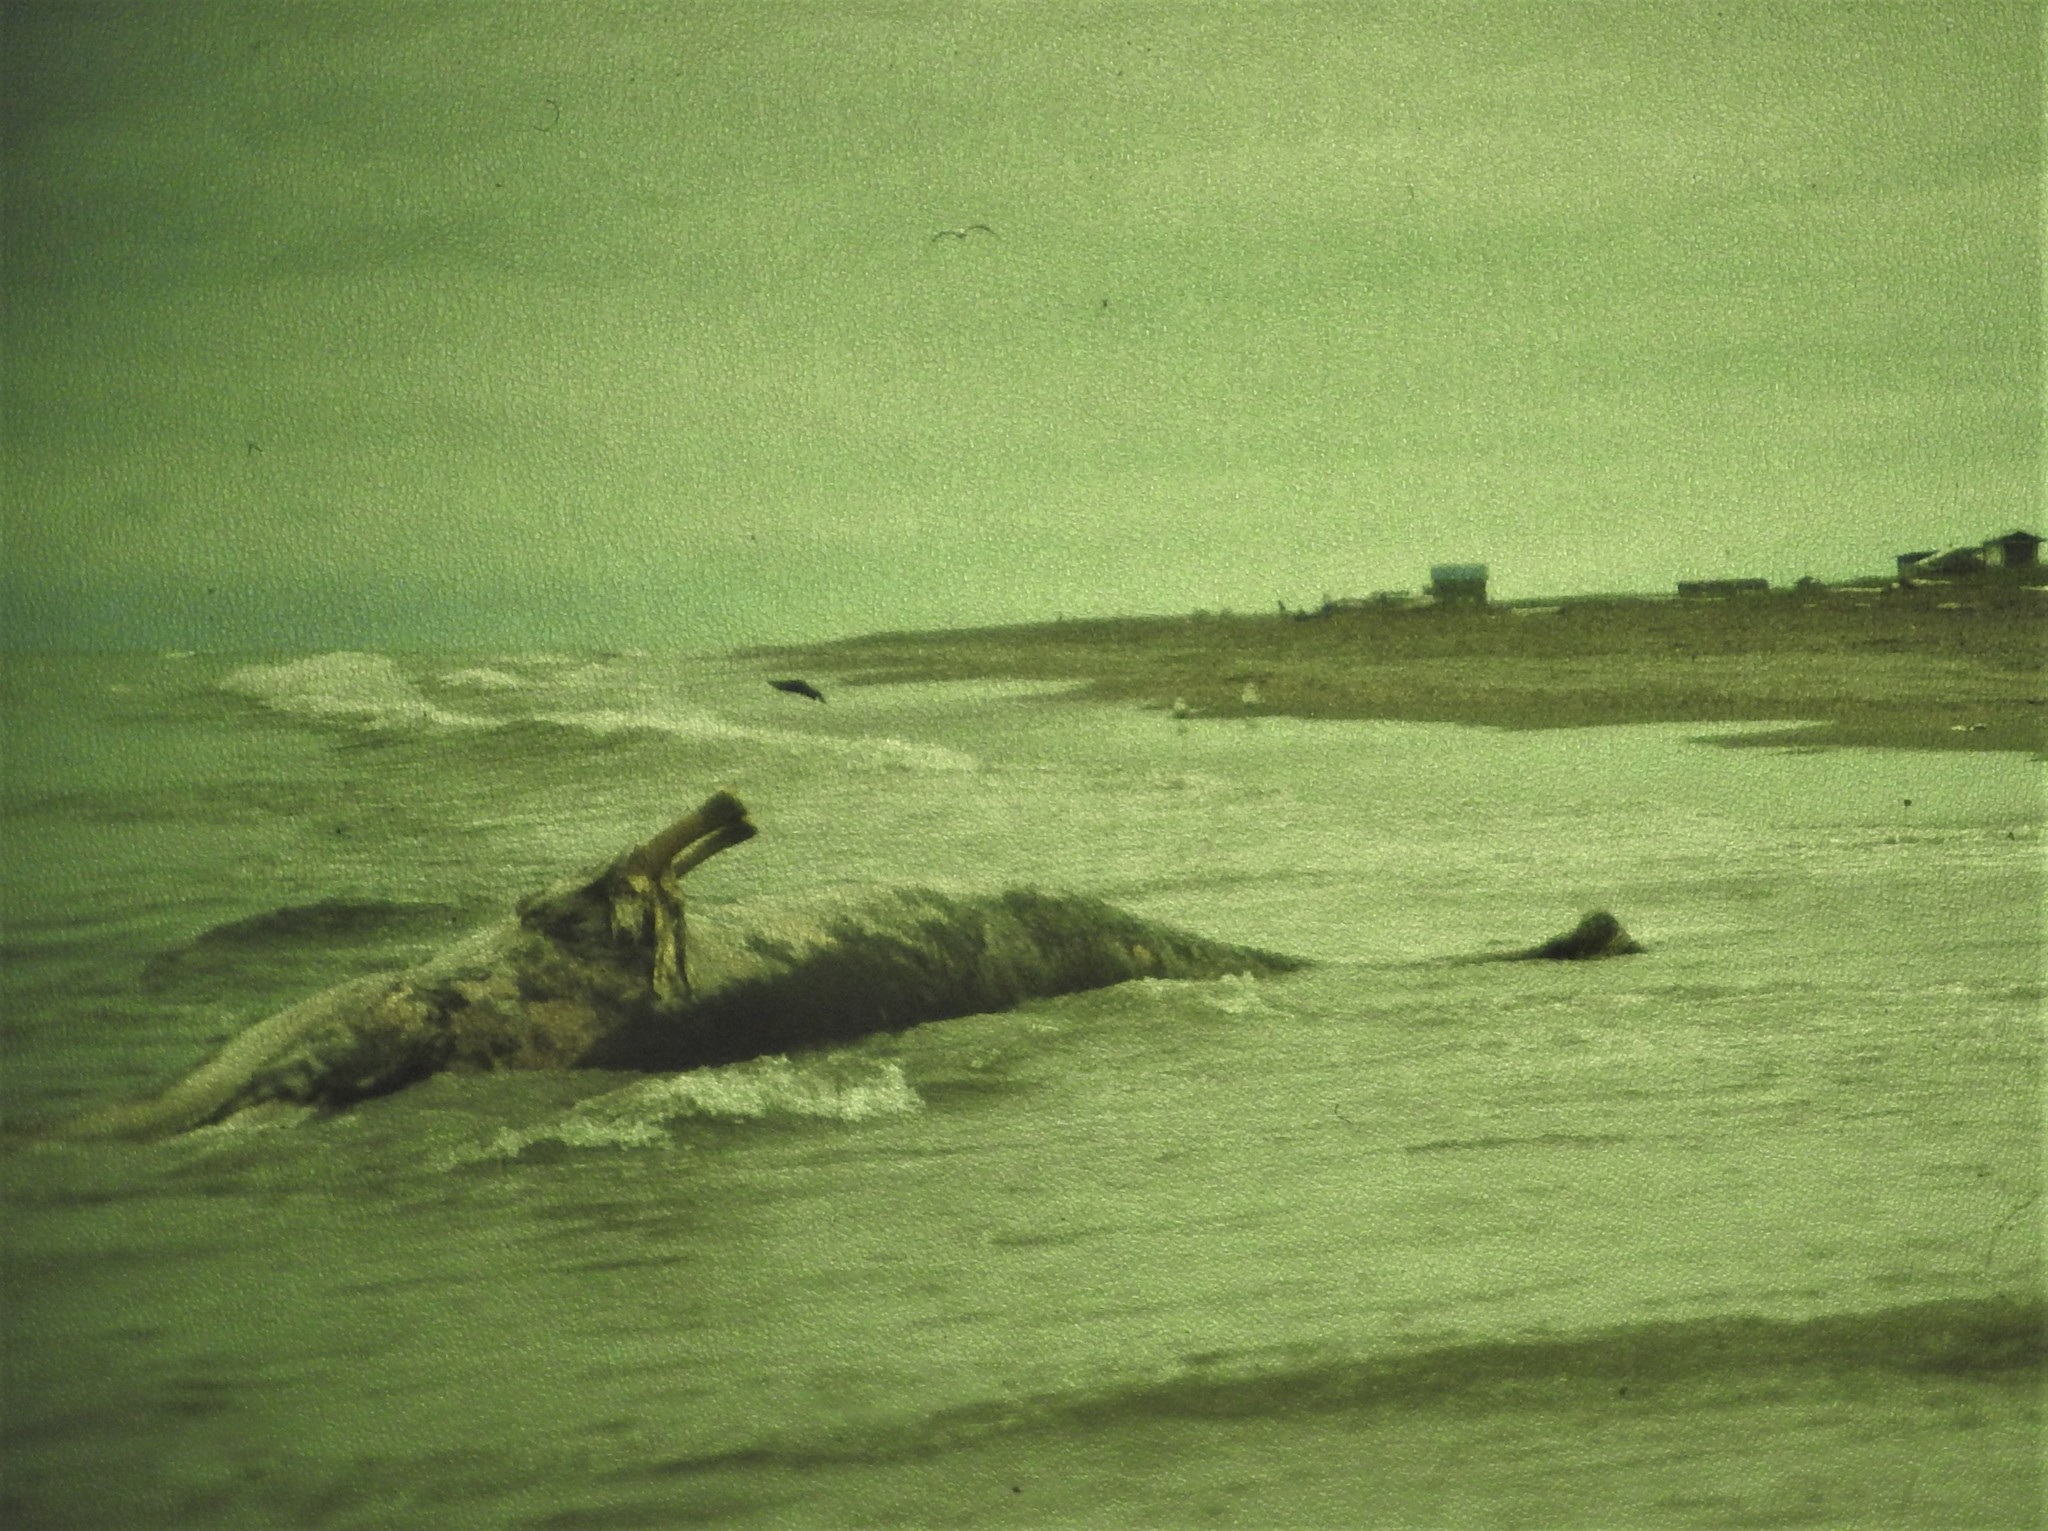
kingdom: Animalia
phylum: Chordata
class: Mammalia
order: Cetacea
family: Eschrichtiidae
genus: Eschrichtius
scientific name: Eschrichtius robustus
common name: Gray whale
